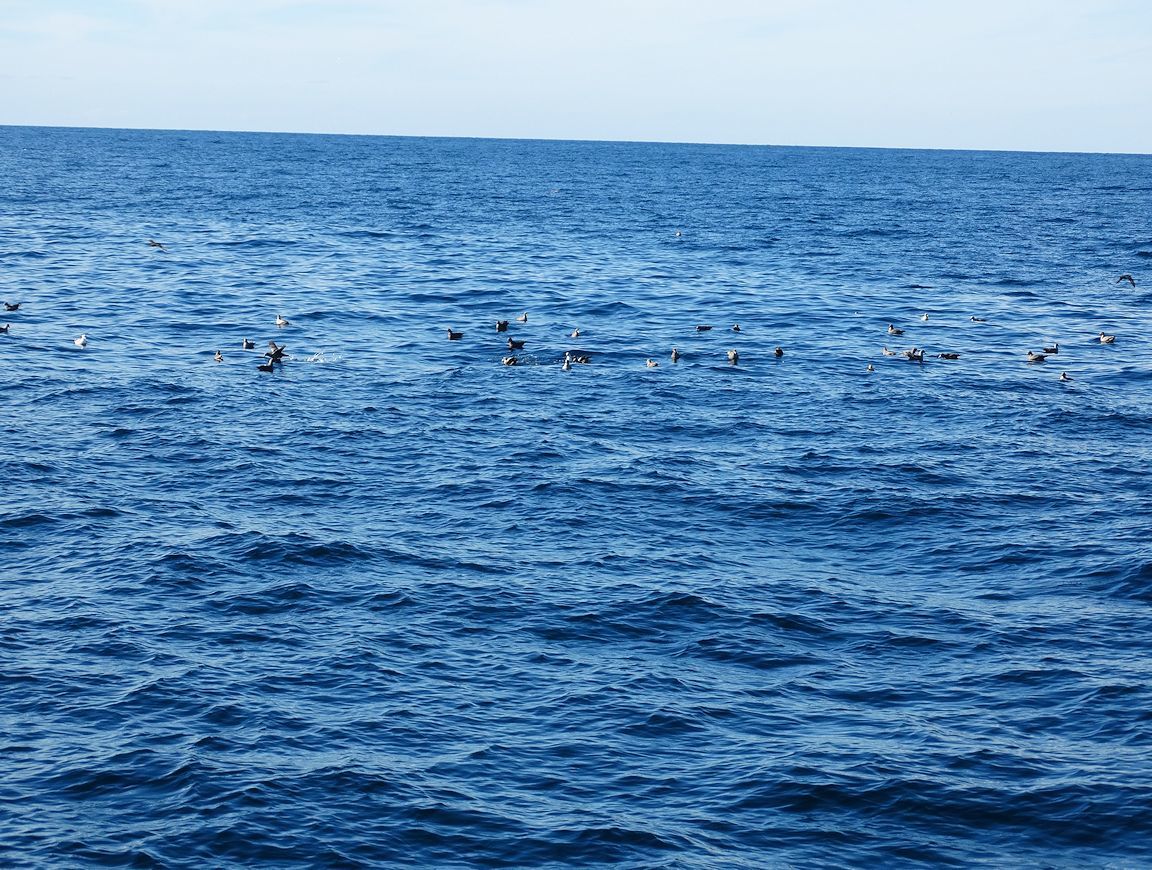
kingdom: Animalia
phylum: Chordata
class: Aves
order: Procellariiformes
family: Procellariidae
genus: Fulmarus
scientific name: Fulmarus glacialis
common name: Northern fulmar
